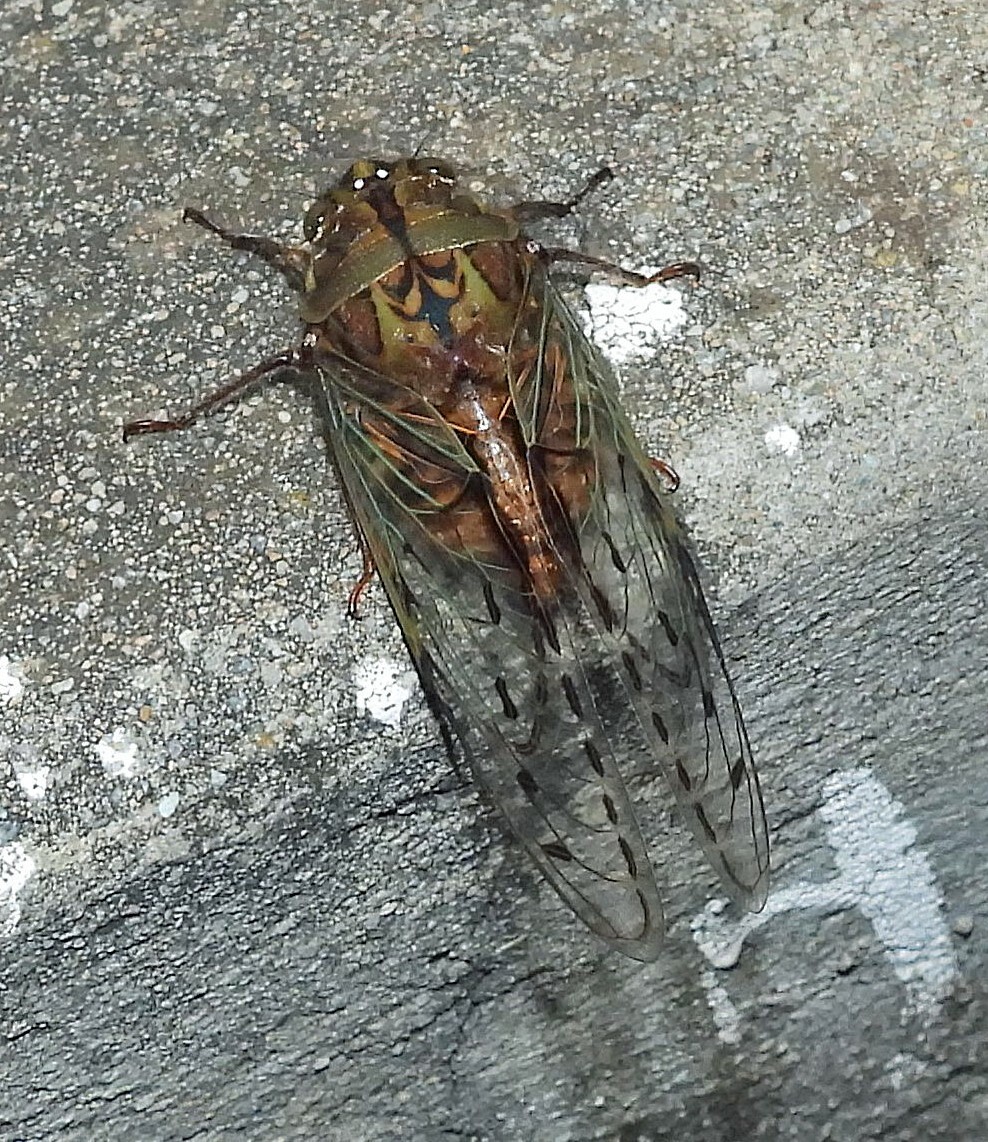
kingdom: Animalia
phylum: Arthropoda
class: Insecta
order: Hemiptera
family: Cicadidae
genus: Pachypsaltria
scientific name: Pachypsaltria peristicta
